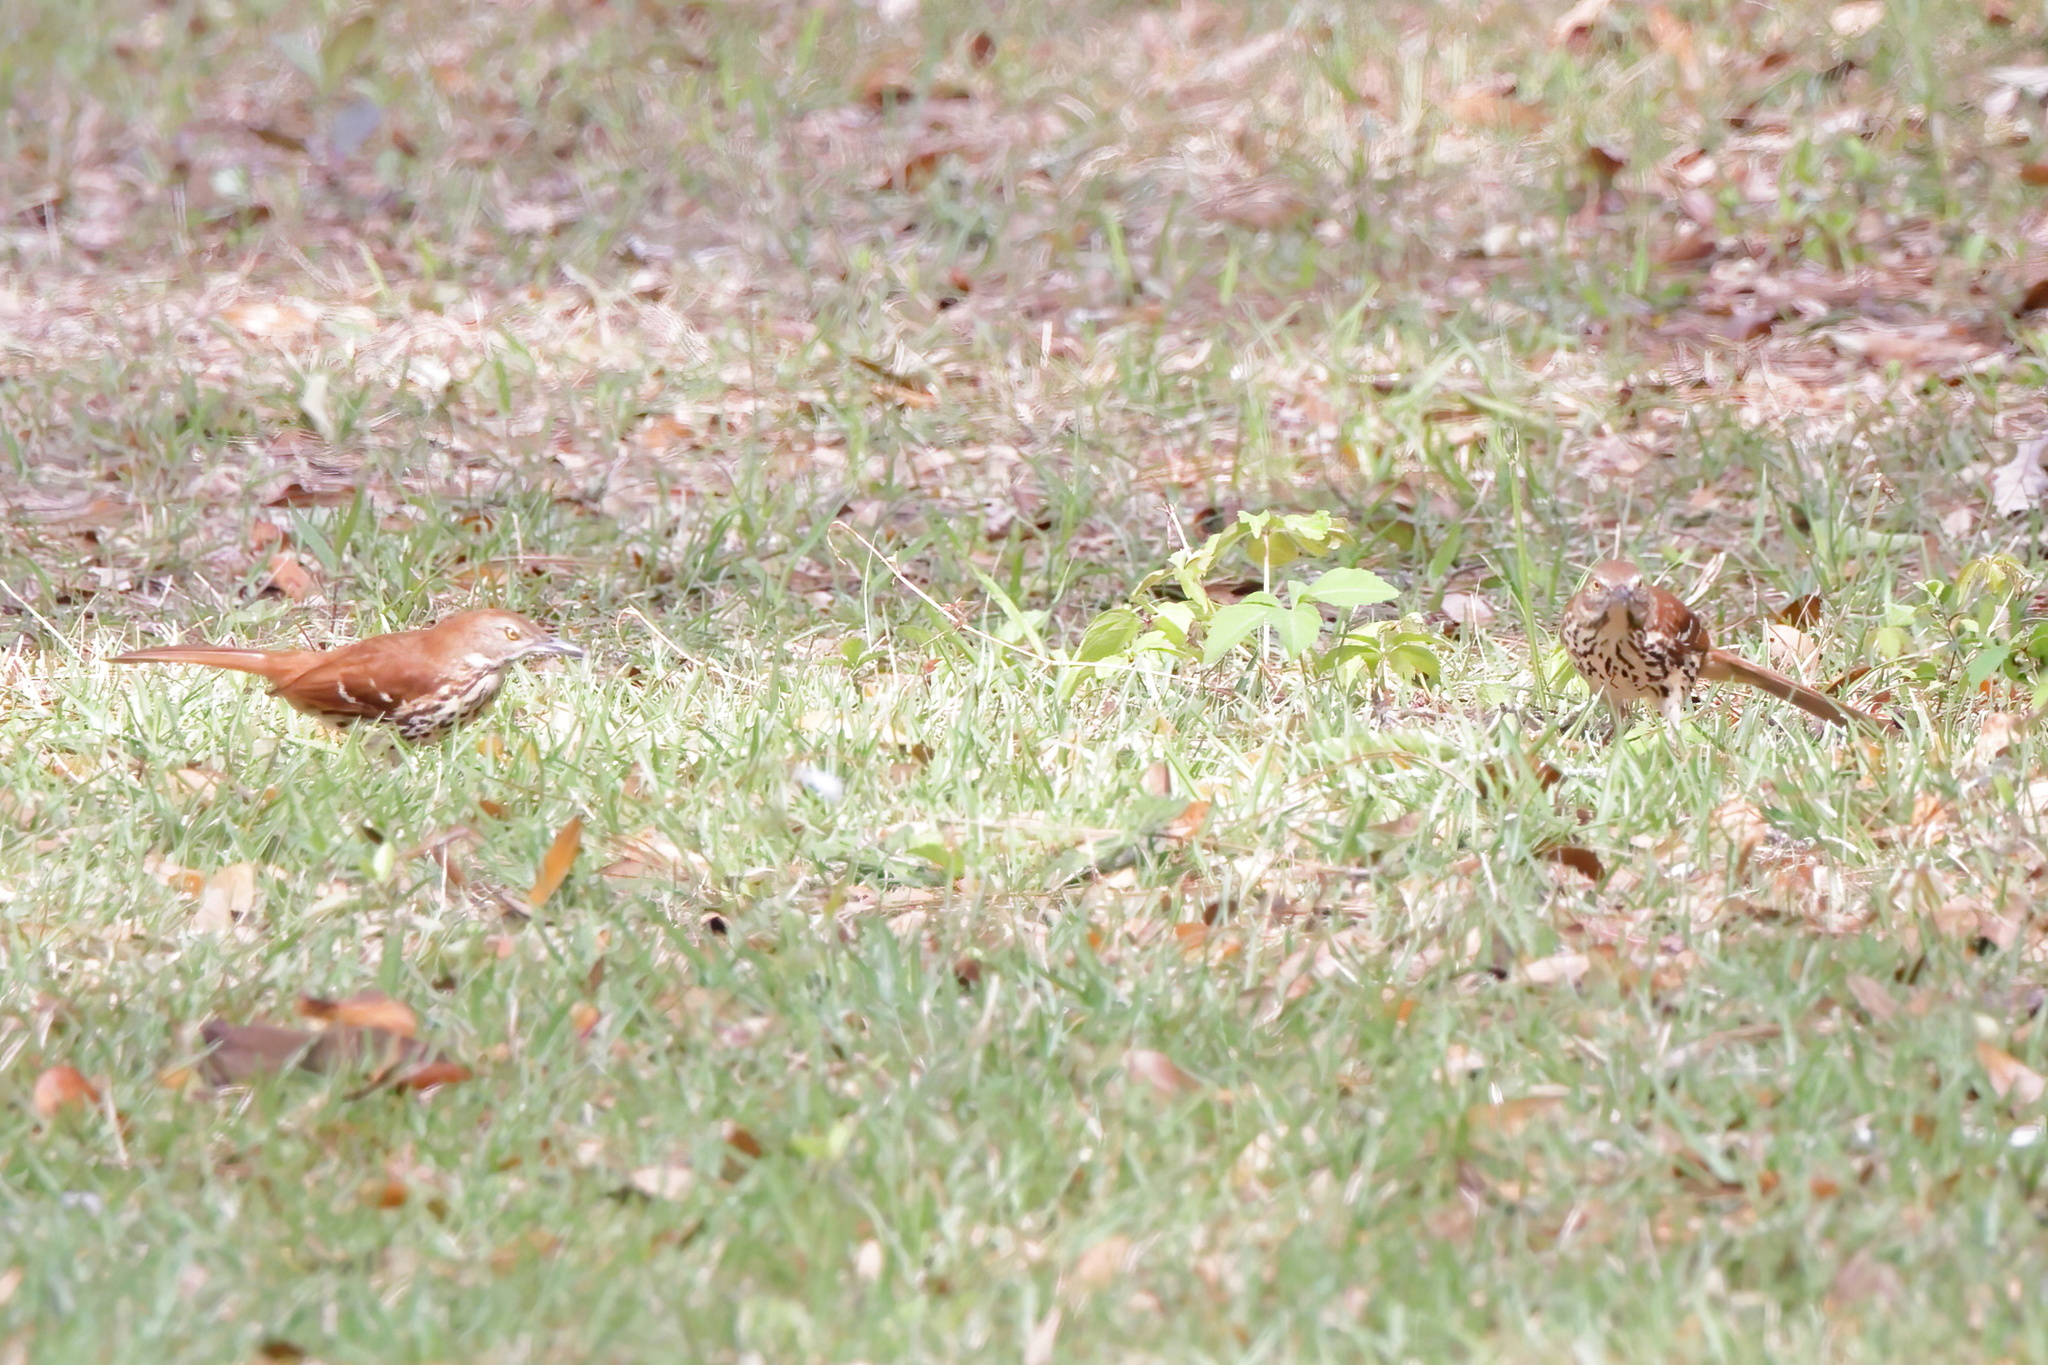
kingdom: Animalia
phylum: Chordata
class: Aves
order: Passeriformes
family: Mimidae
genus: Toxostoma
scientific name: Toxostoma rufum
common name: Brown thrasher
